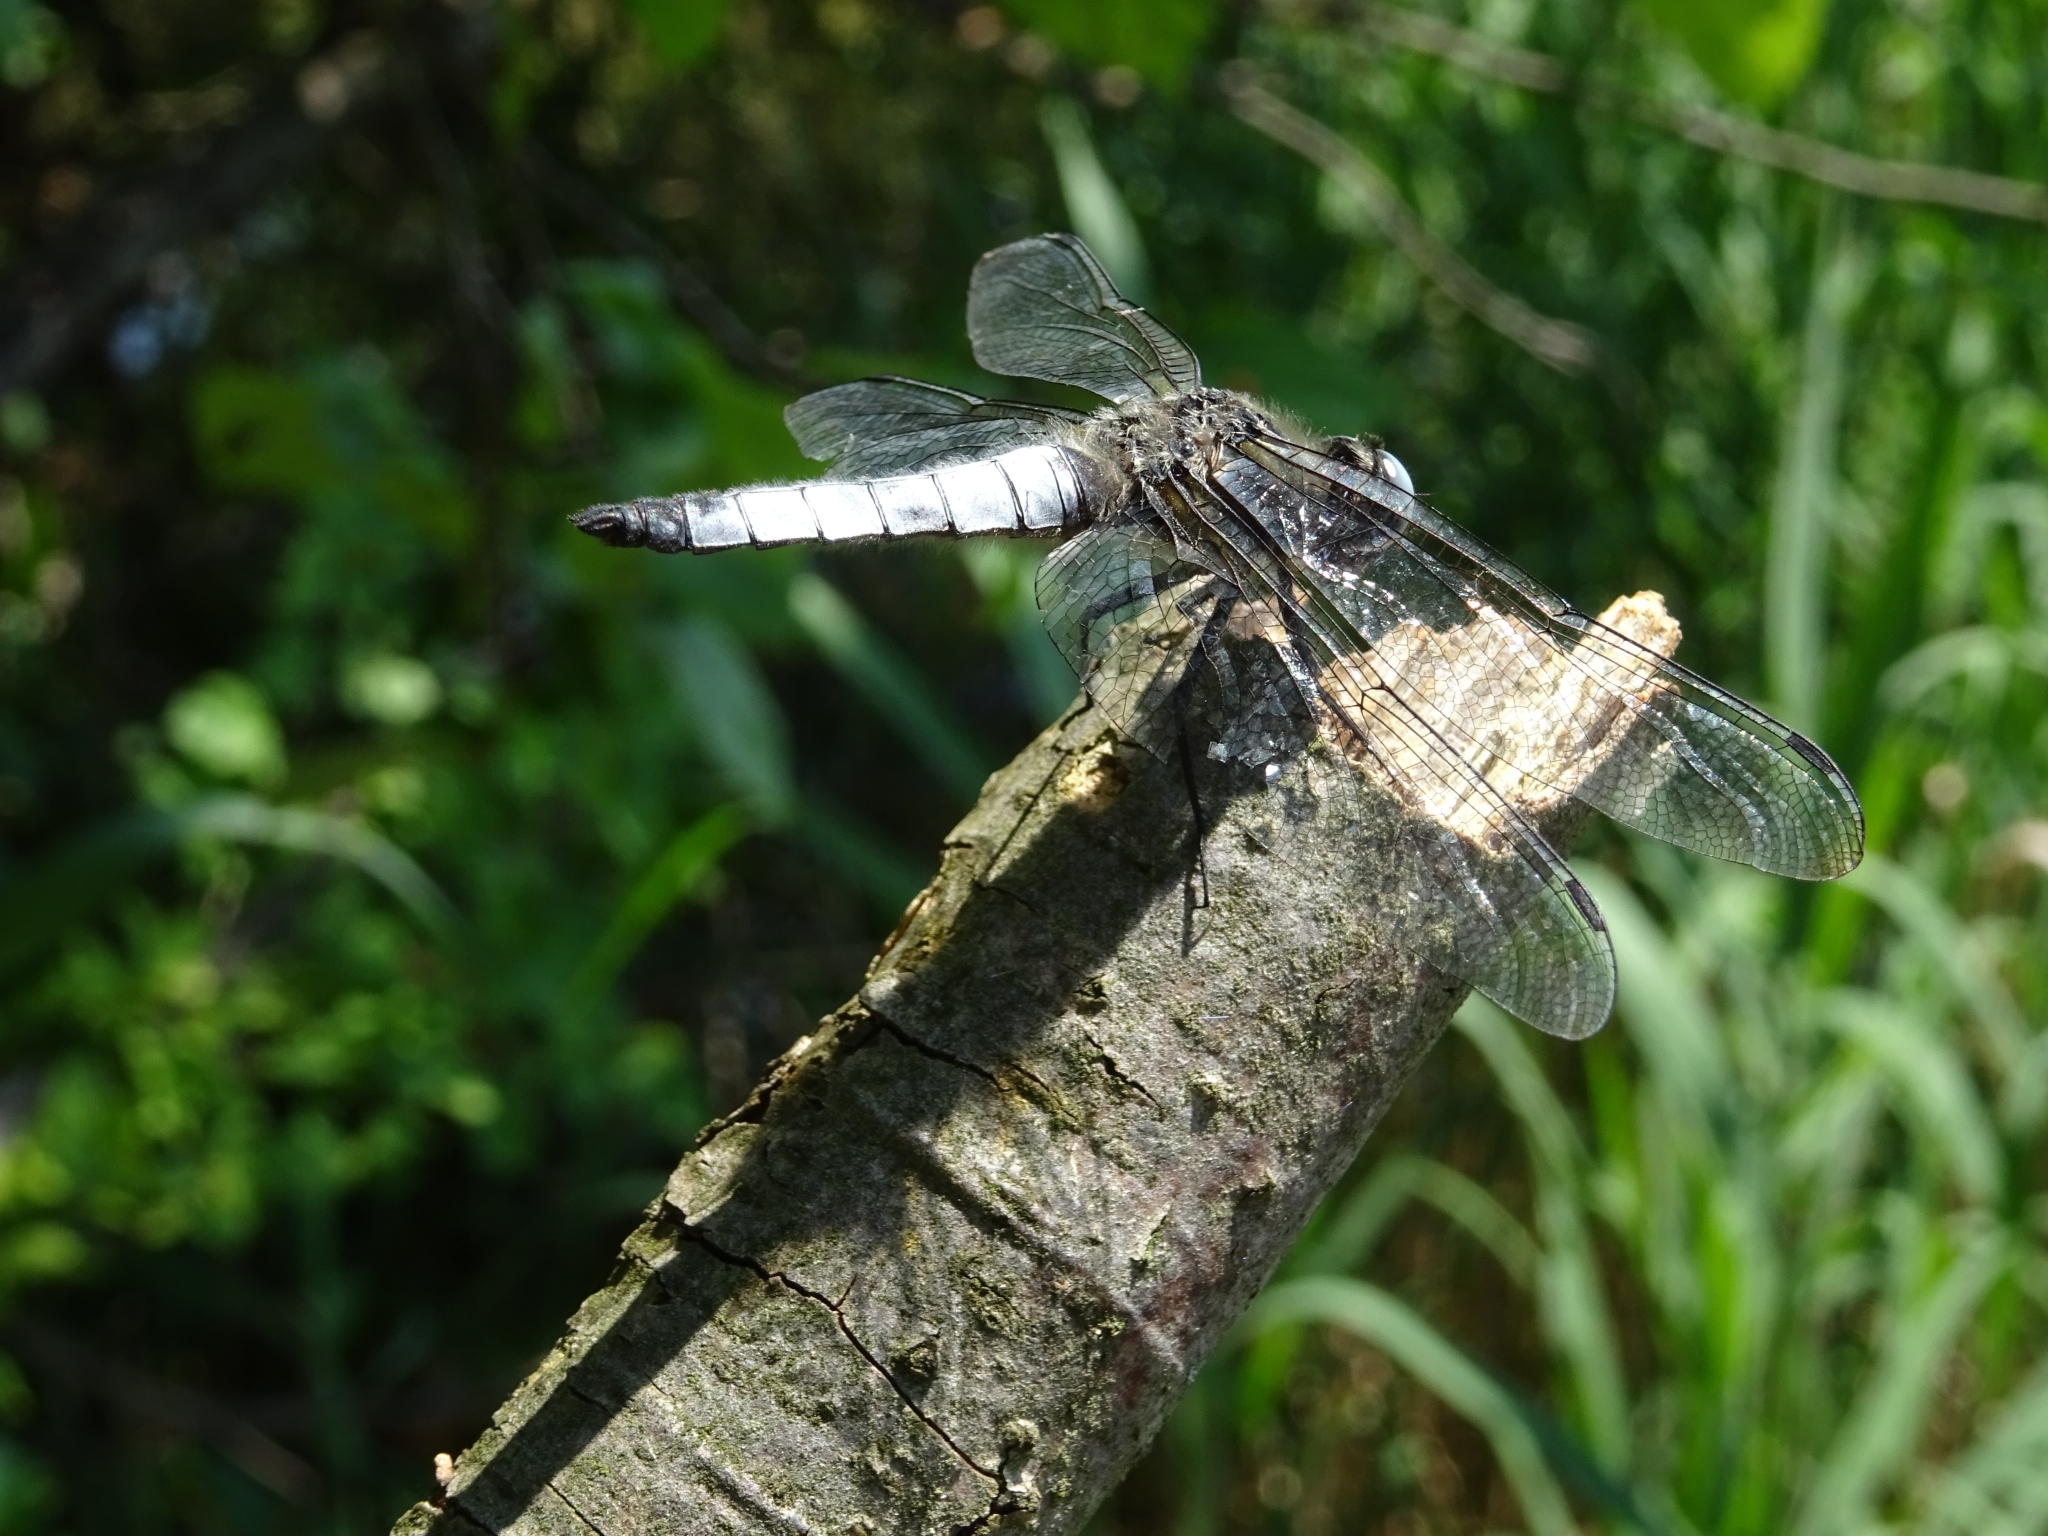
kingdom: Animalia
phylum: Arthropoda
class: Insecta
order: Odonata
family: Libellulidae
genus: Libellula
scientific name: Libellula fulva
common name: Blue chaser
